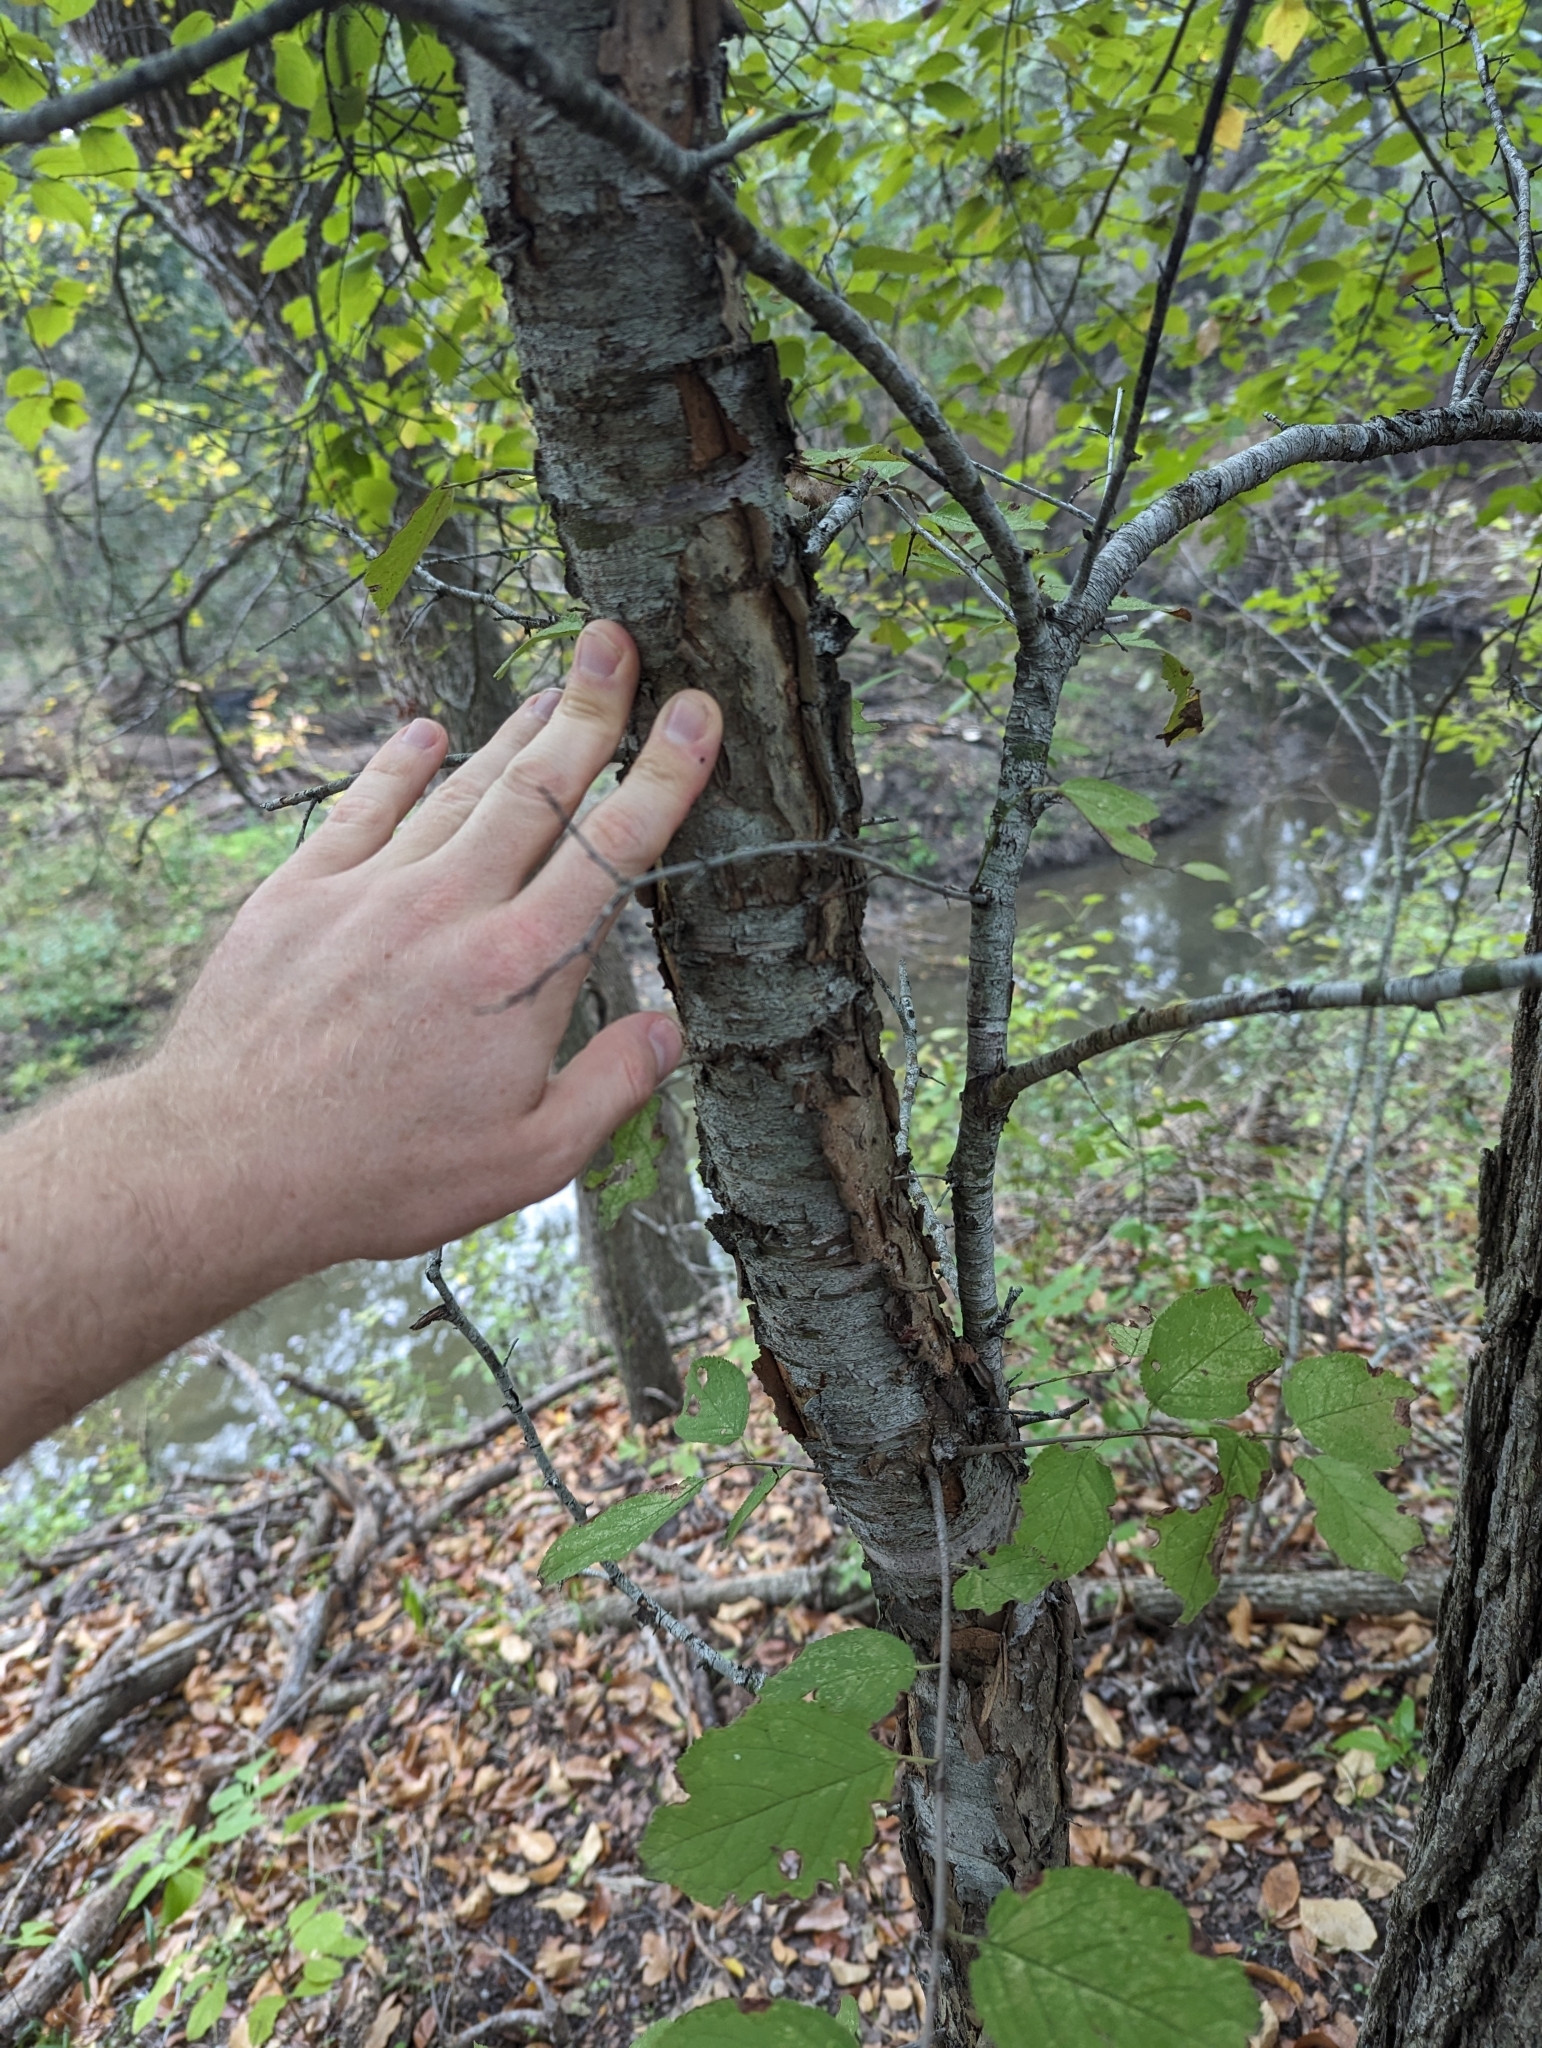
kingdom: Plantae
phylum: Tracheophyta
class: Magnoliopsida
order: Rosales
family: Rosaceae
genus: Prunus
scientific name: Prunus mexicana
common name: Mexican plum
